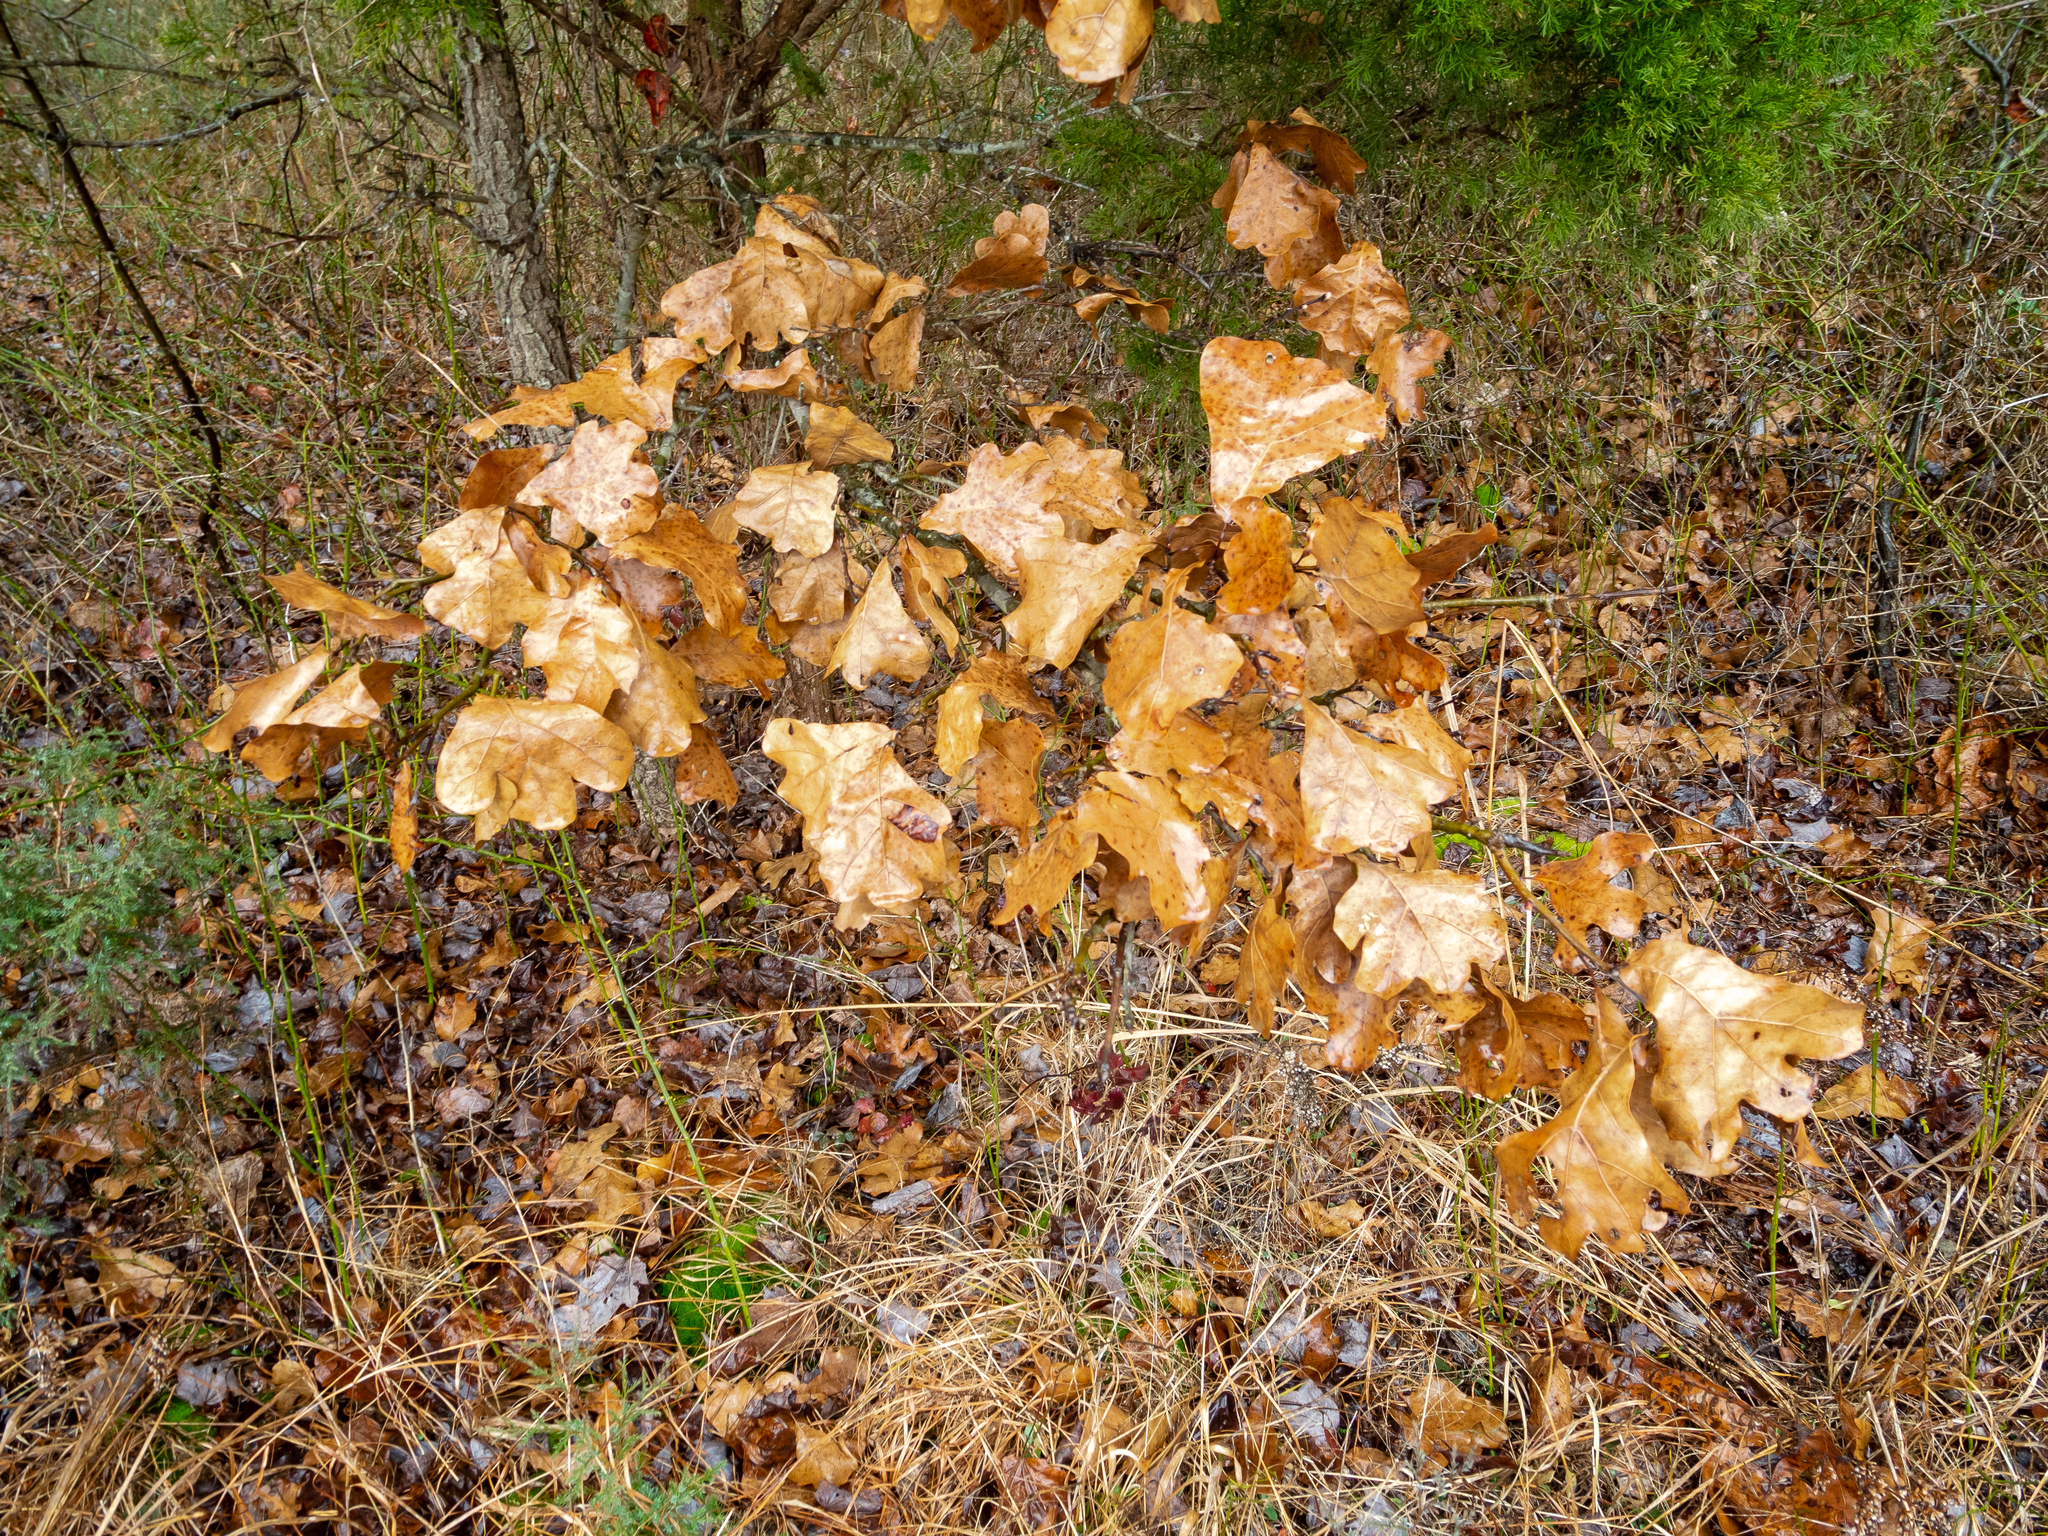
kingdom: Plantae
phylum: Tracheophyta
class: Magnoliopsida
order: Fagales
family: Fagaceae
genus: Quercus
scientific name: Quercus marilandica
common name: Blackjack oak
